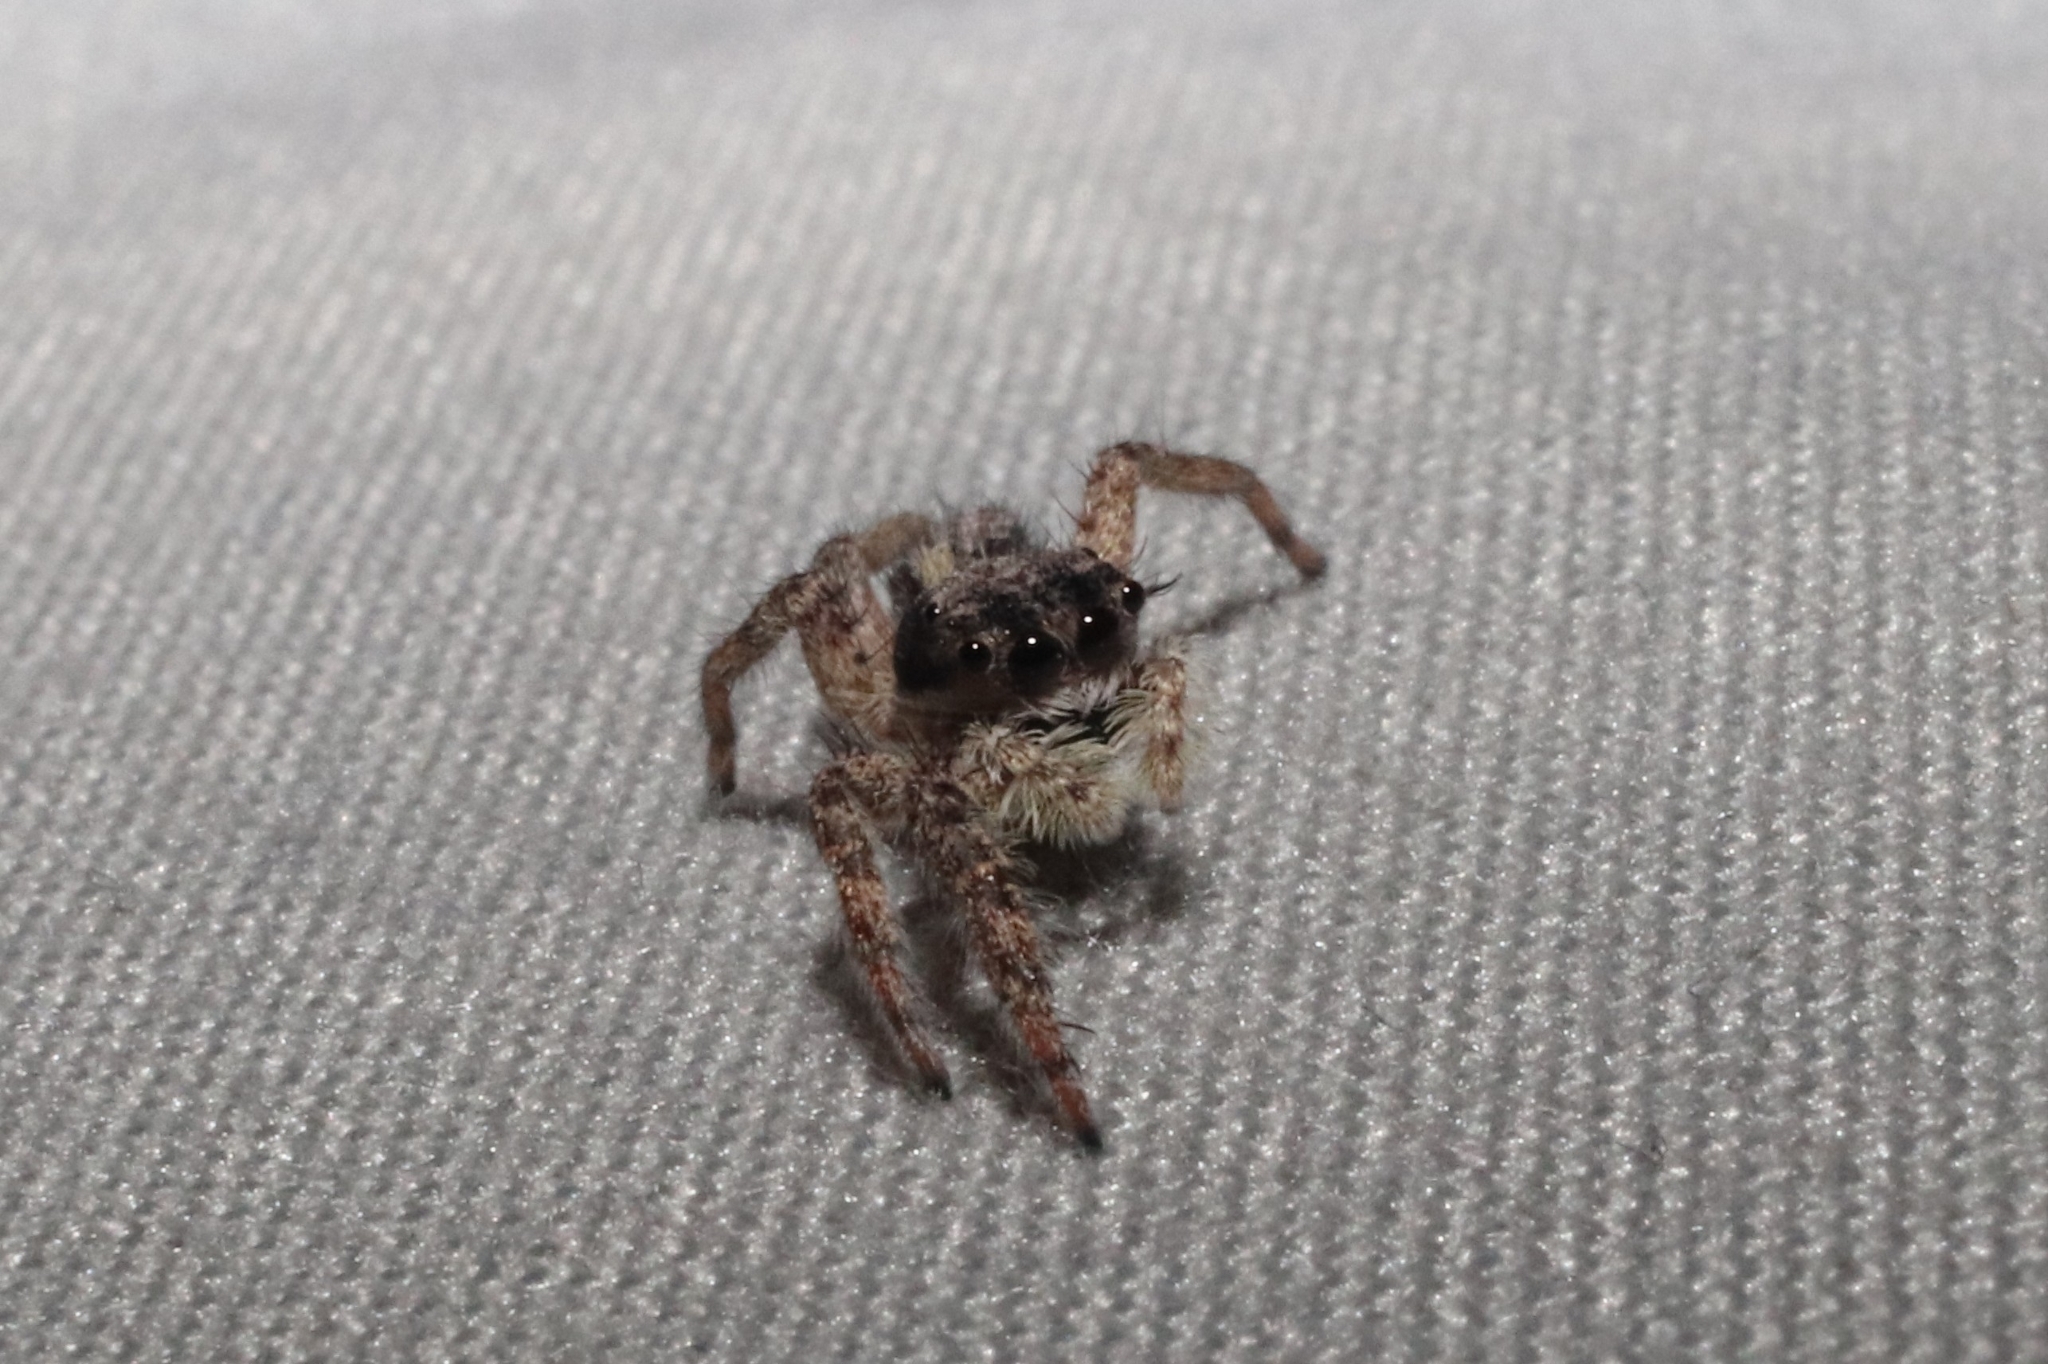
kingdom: Animalia
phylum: Arthropoda
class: Arachnida
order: Araneae
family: Salticidae
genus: Platycryptus
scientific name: Platycryptus californicus
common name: Jumping spiders
